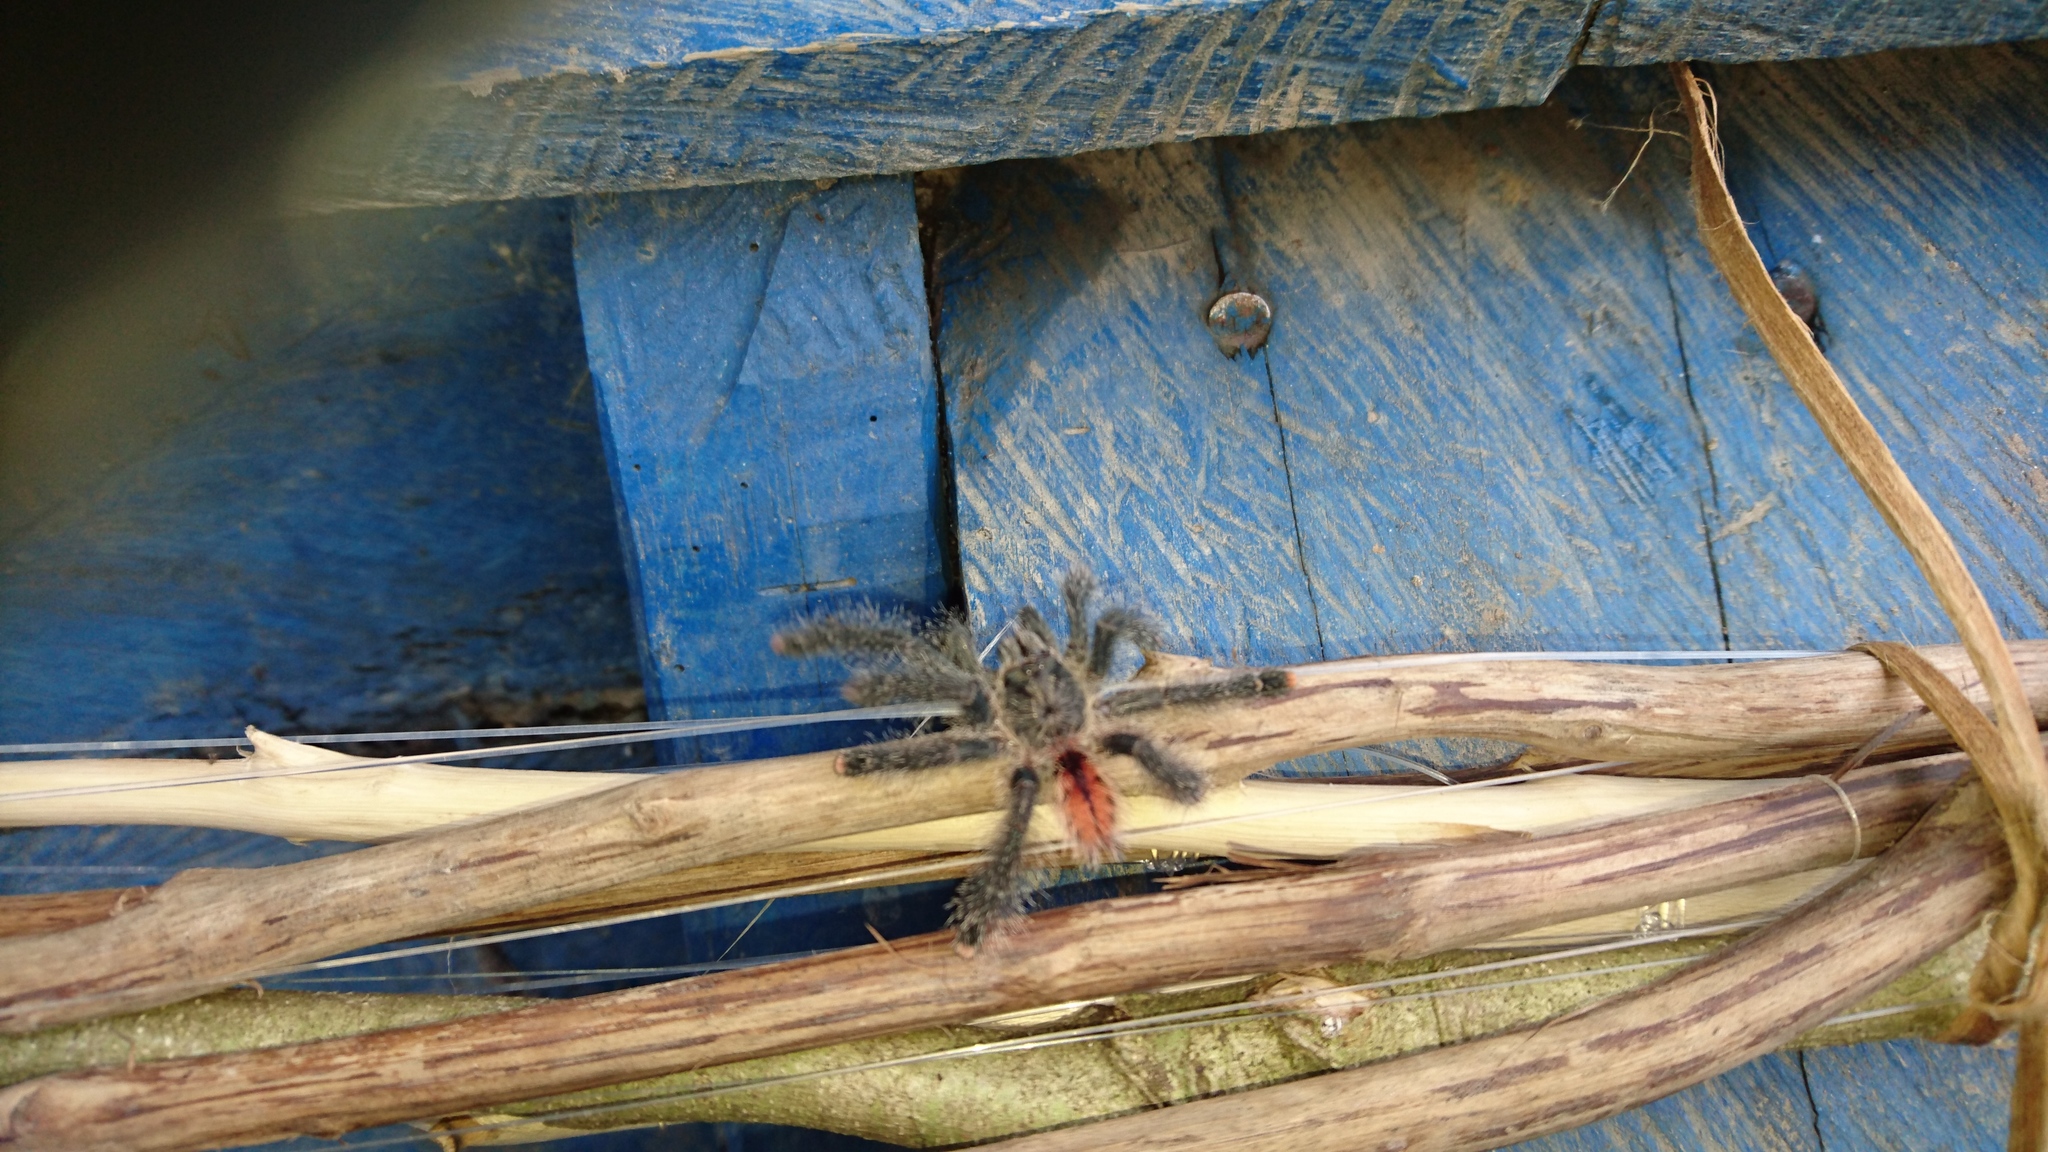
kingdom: Animalia
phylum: Arthropoda
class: Arachnida
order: Araneae
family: Theraphosidae
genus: Avicularia
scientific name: Avicularia juruensis
